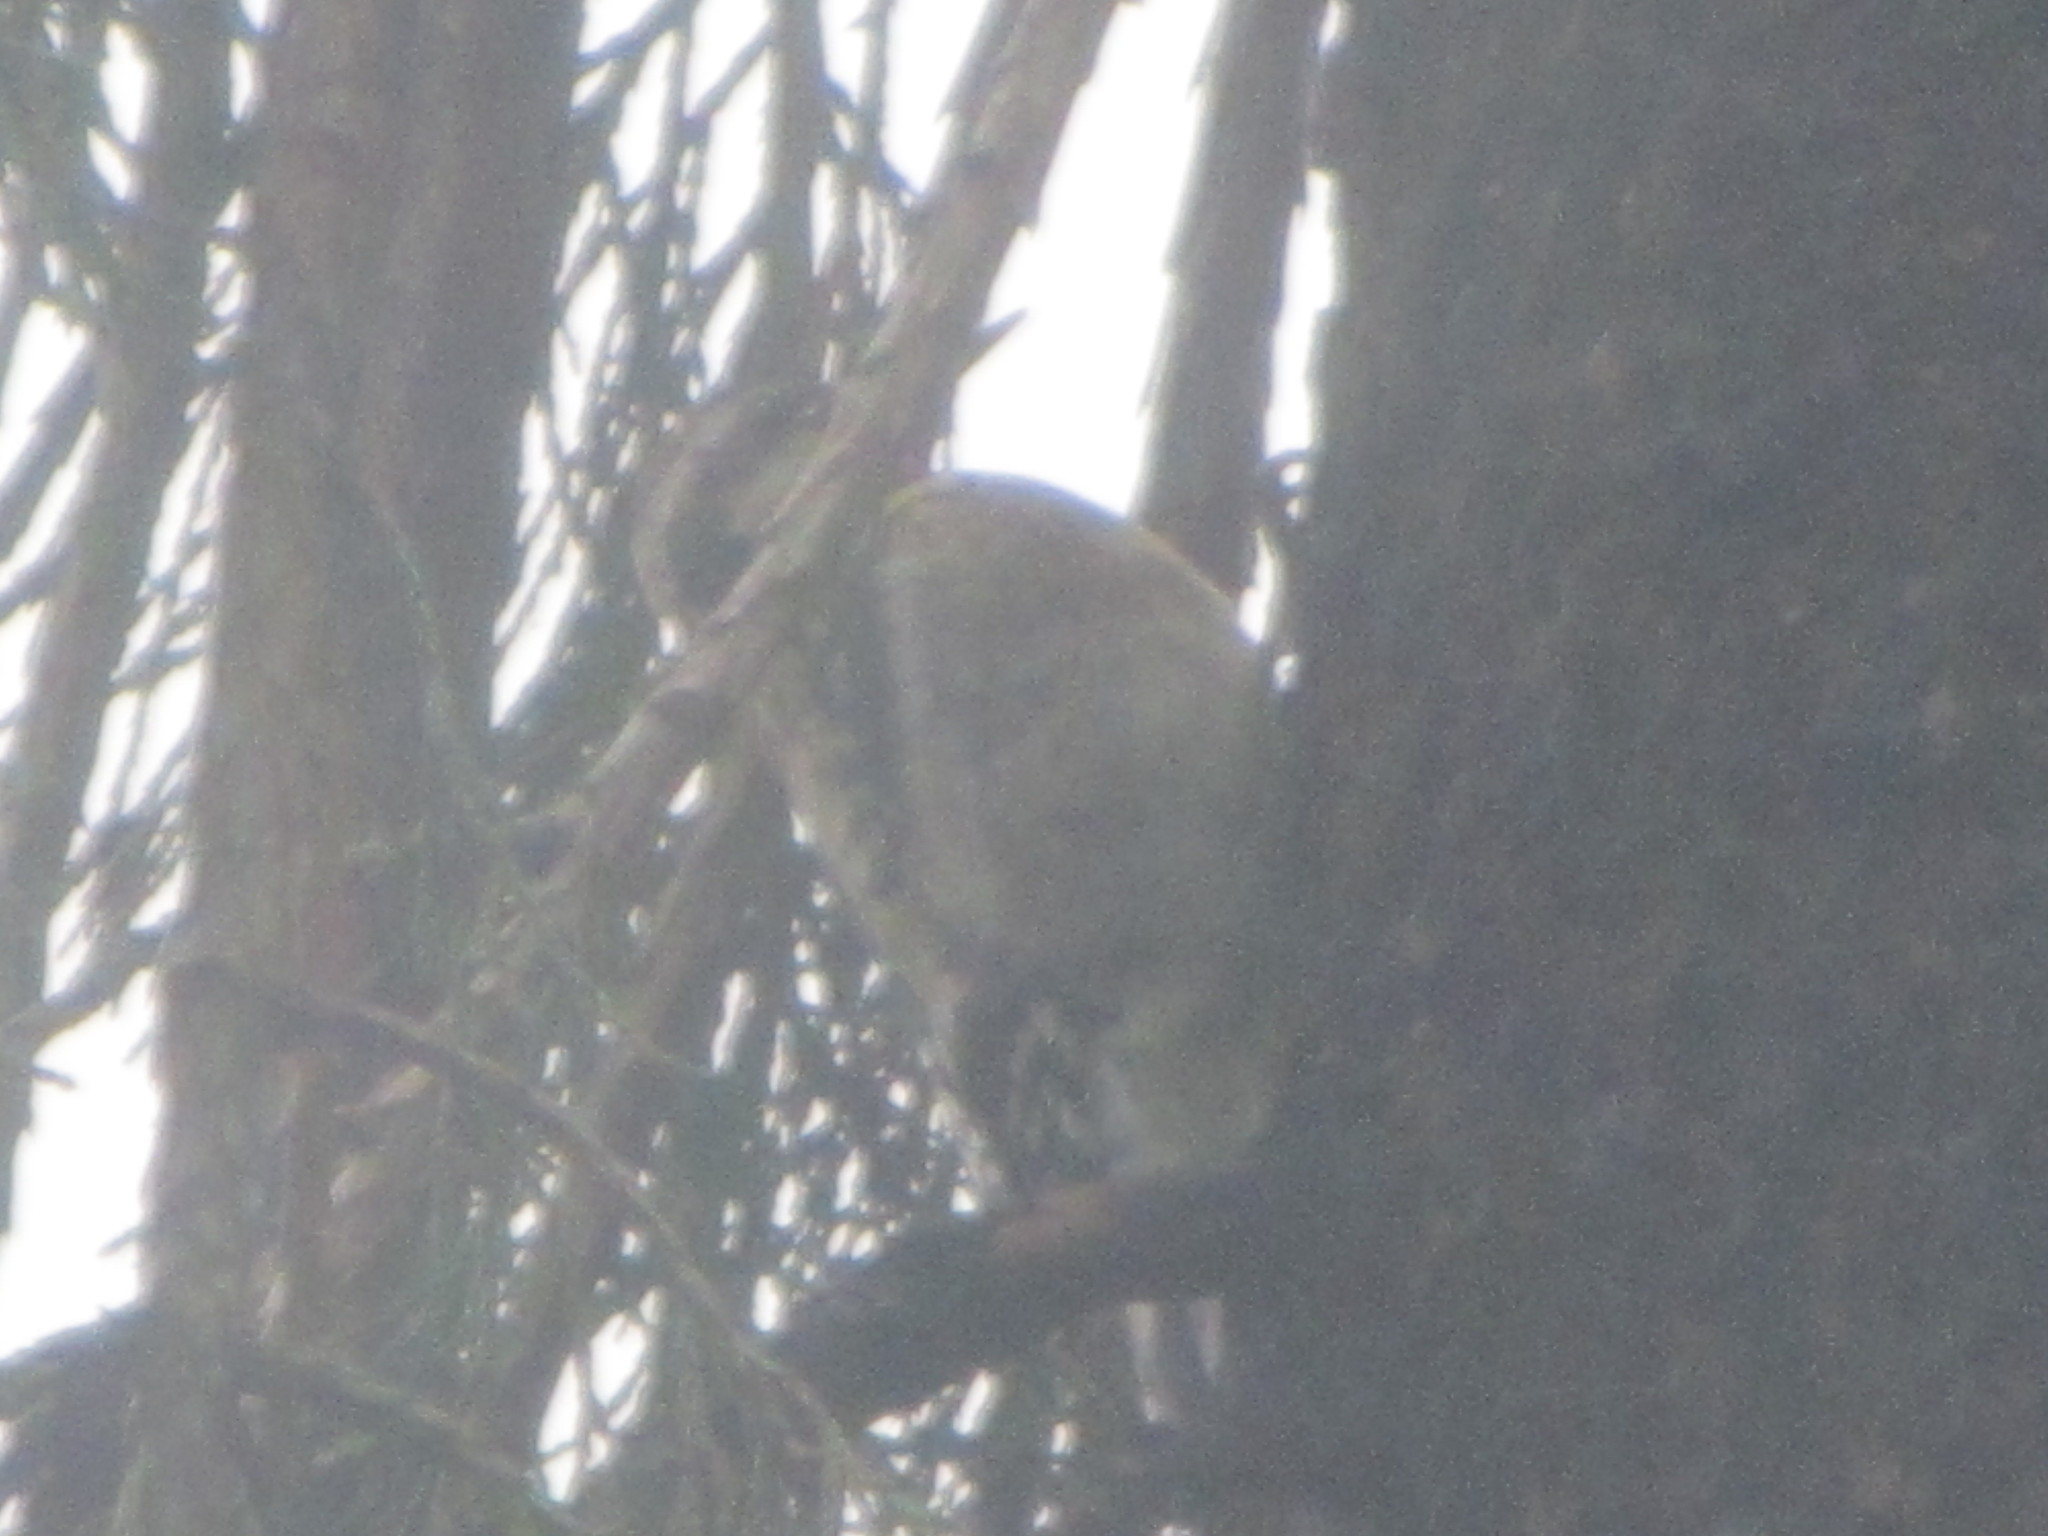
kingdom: Animalia
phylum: Chordata
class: Aves
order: Piciformes
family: Picidae
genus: Sphyrapicus
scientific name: Sphyrapicus varius
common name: Yellow-bellied sapsucker
